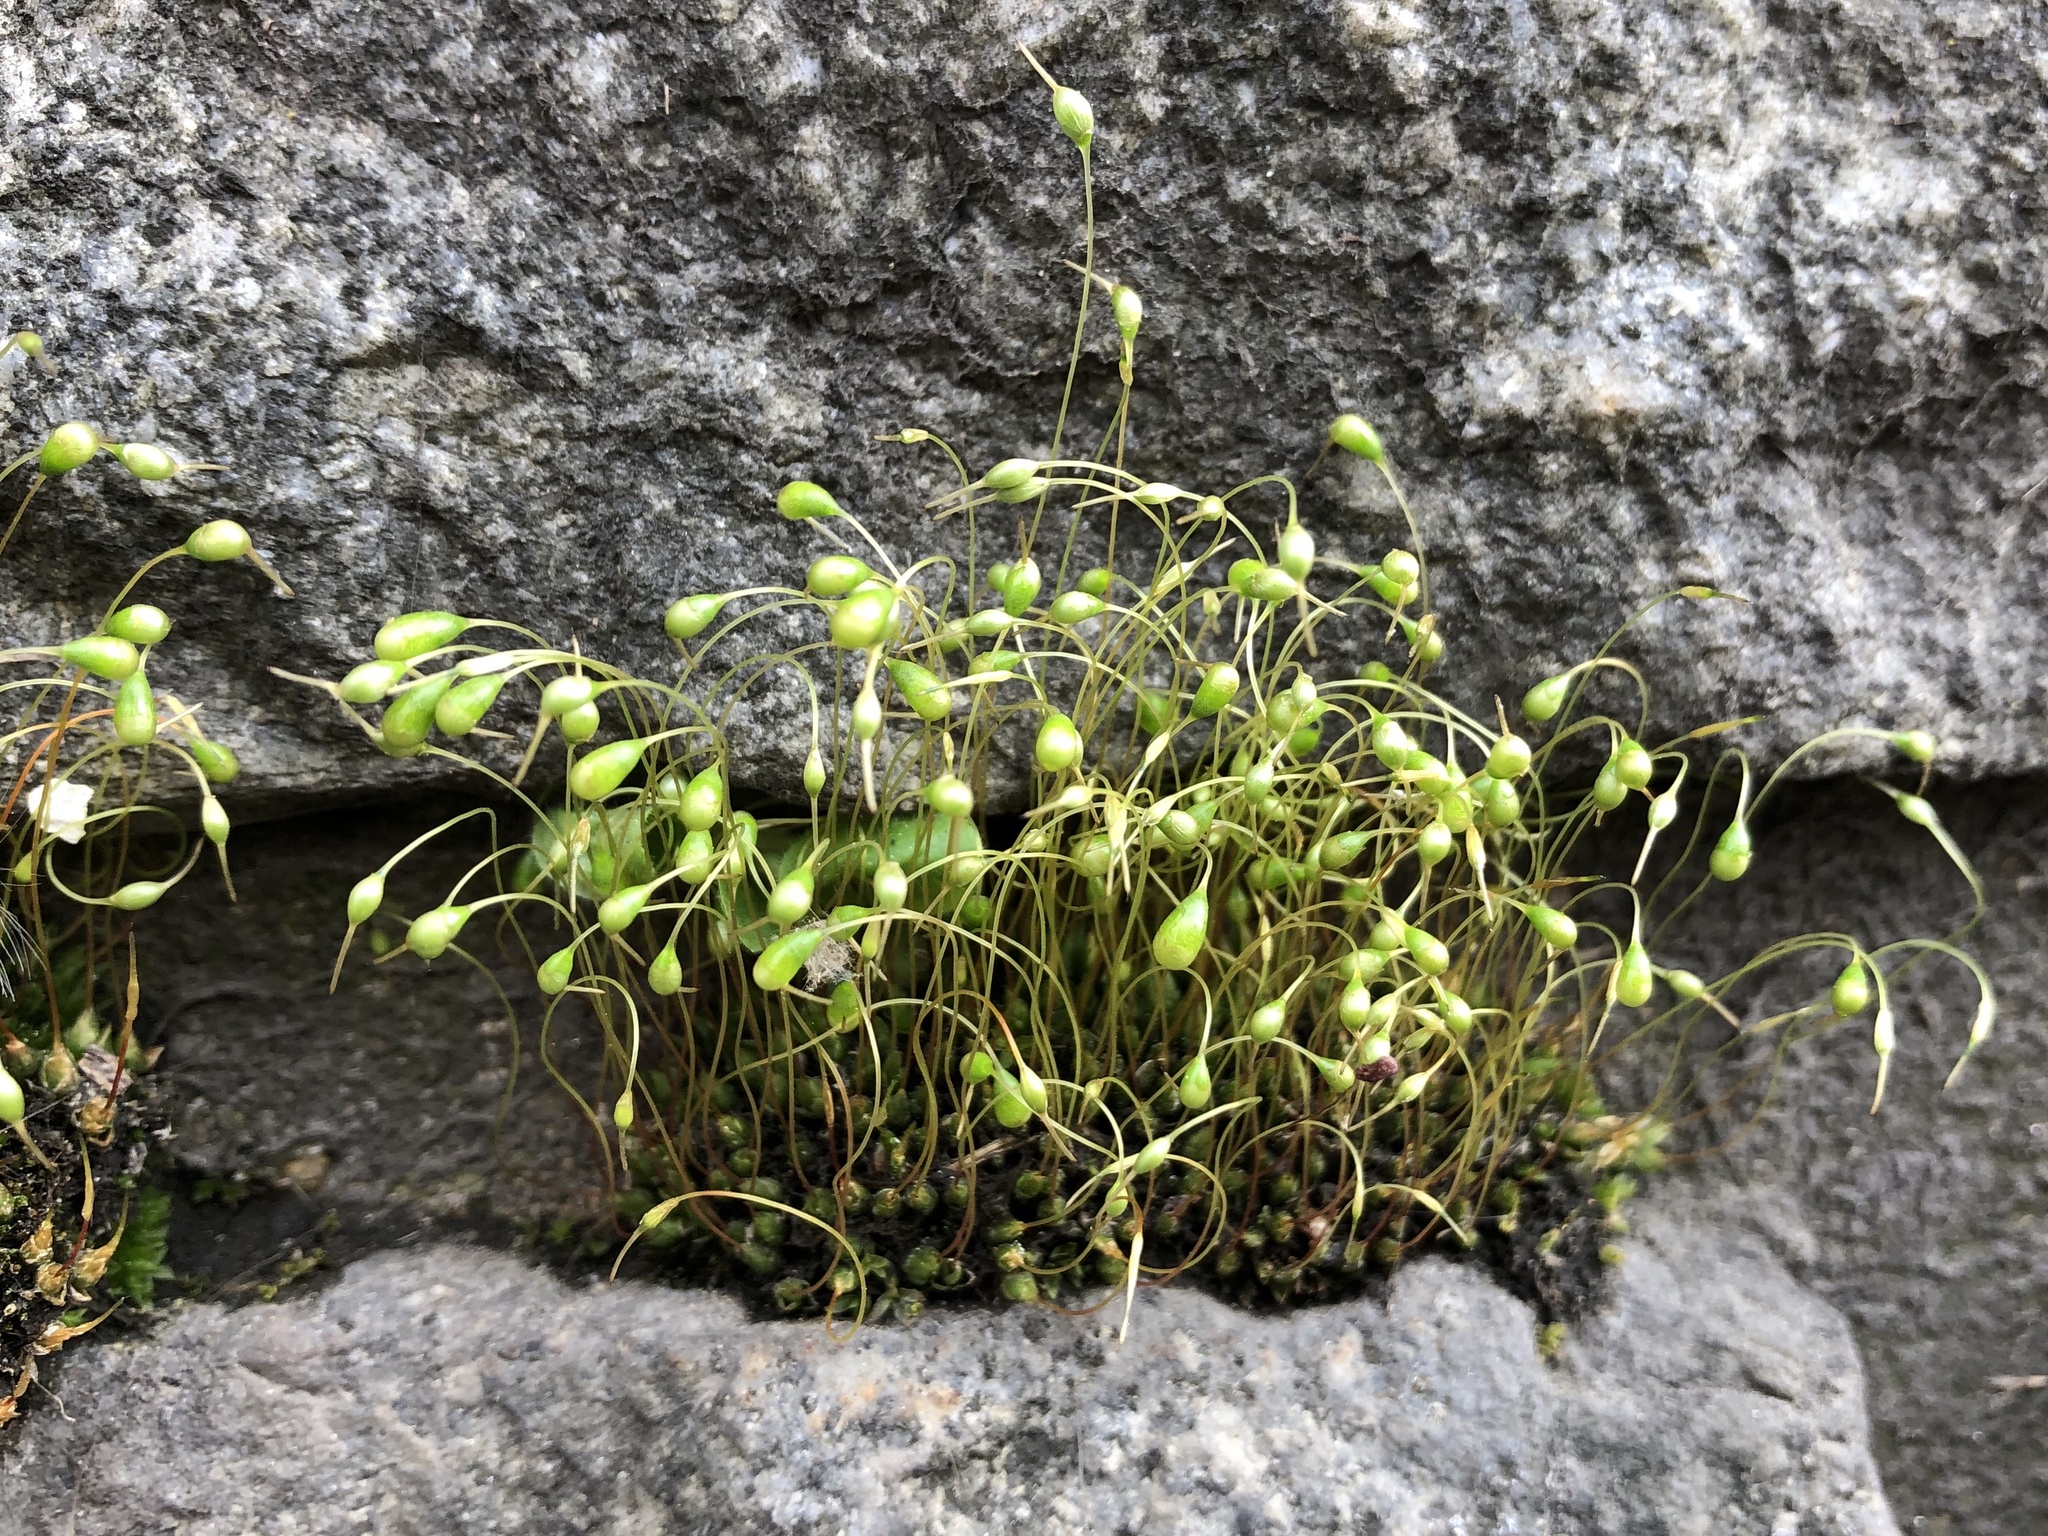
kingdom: Plantae
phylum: Bryophyta
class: Bryopsida
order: Funariales
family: Funariaceae
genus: Funaria
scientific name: Funaria hygrometrica
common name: Common cord moss
